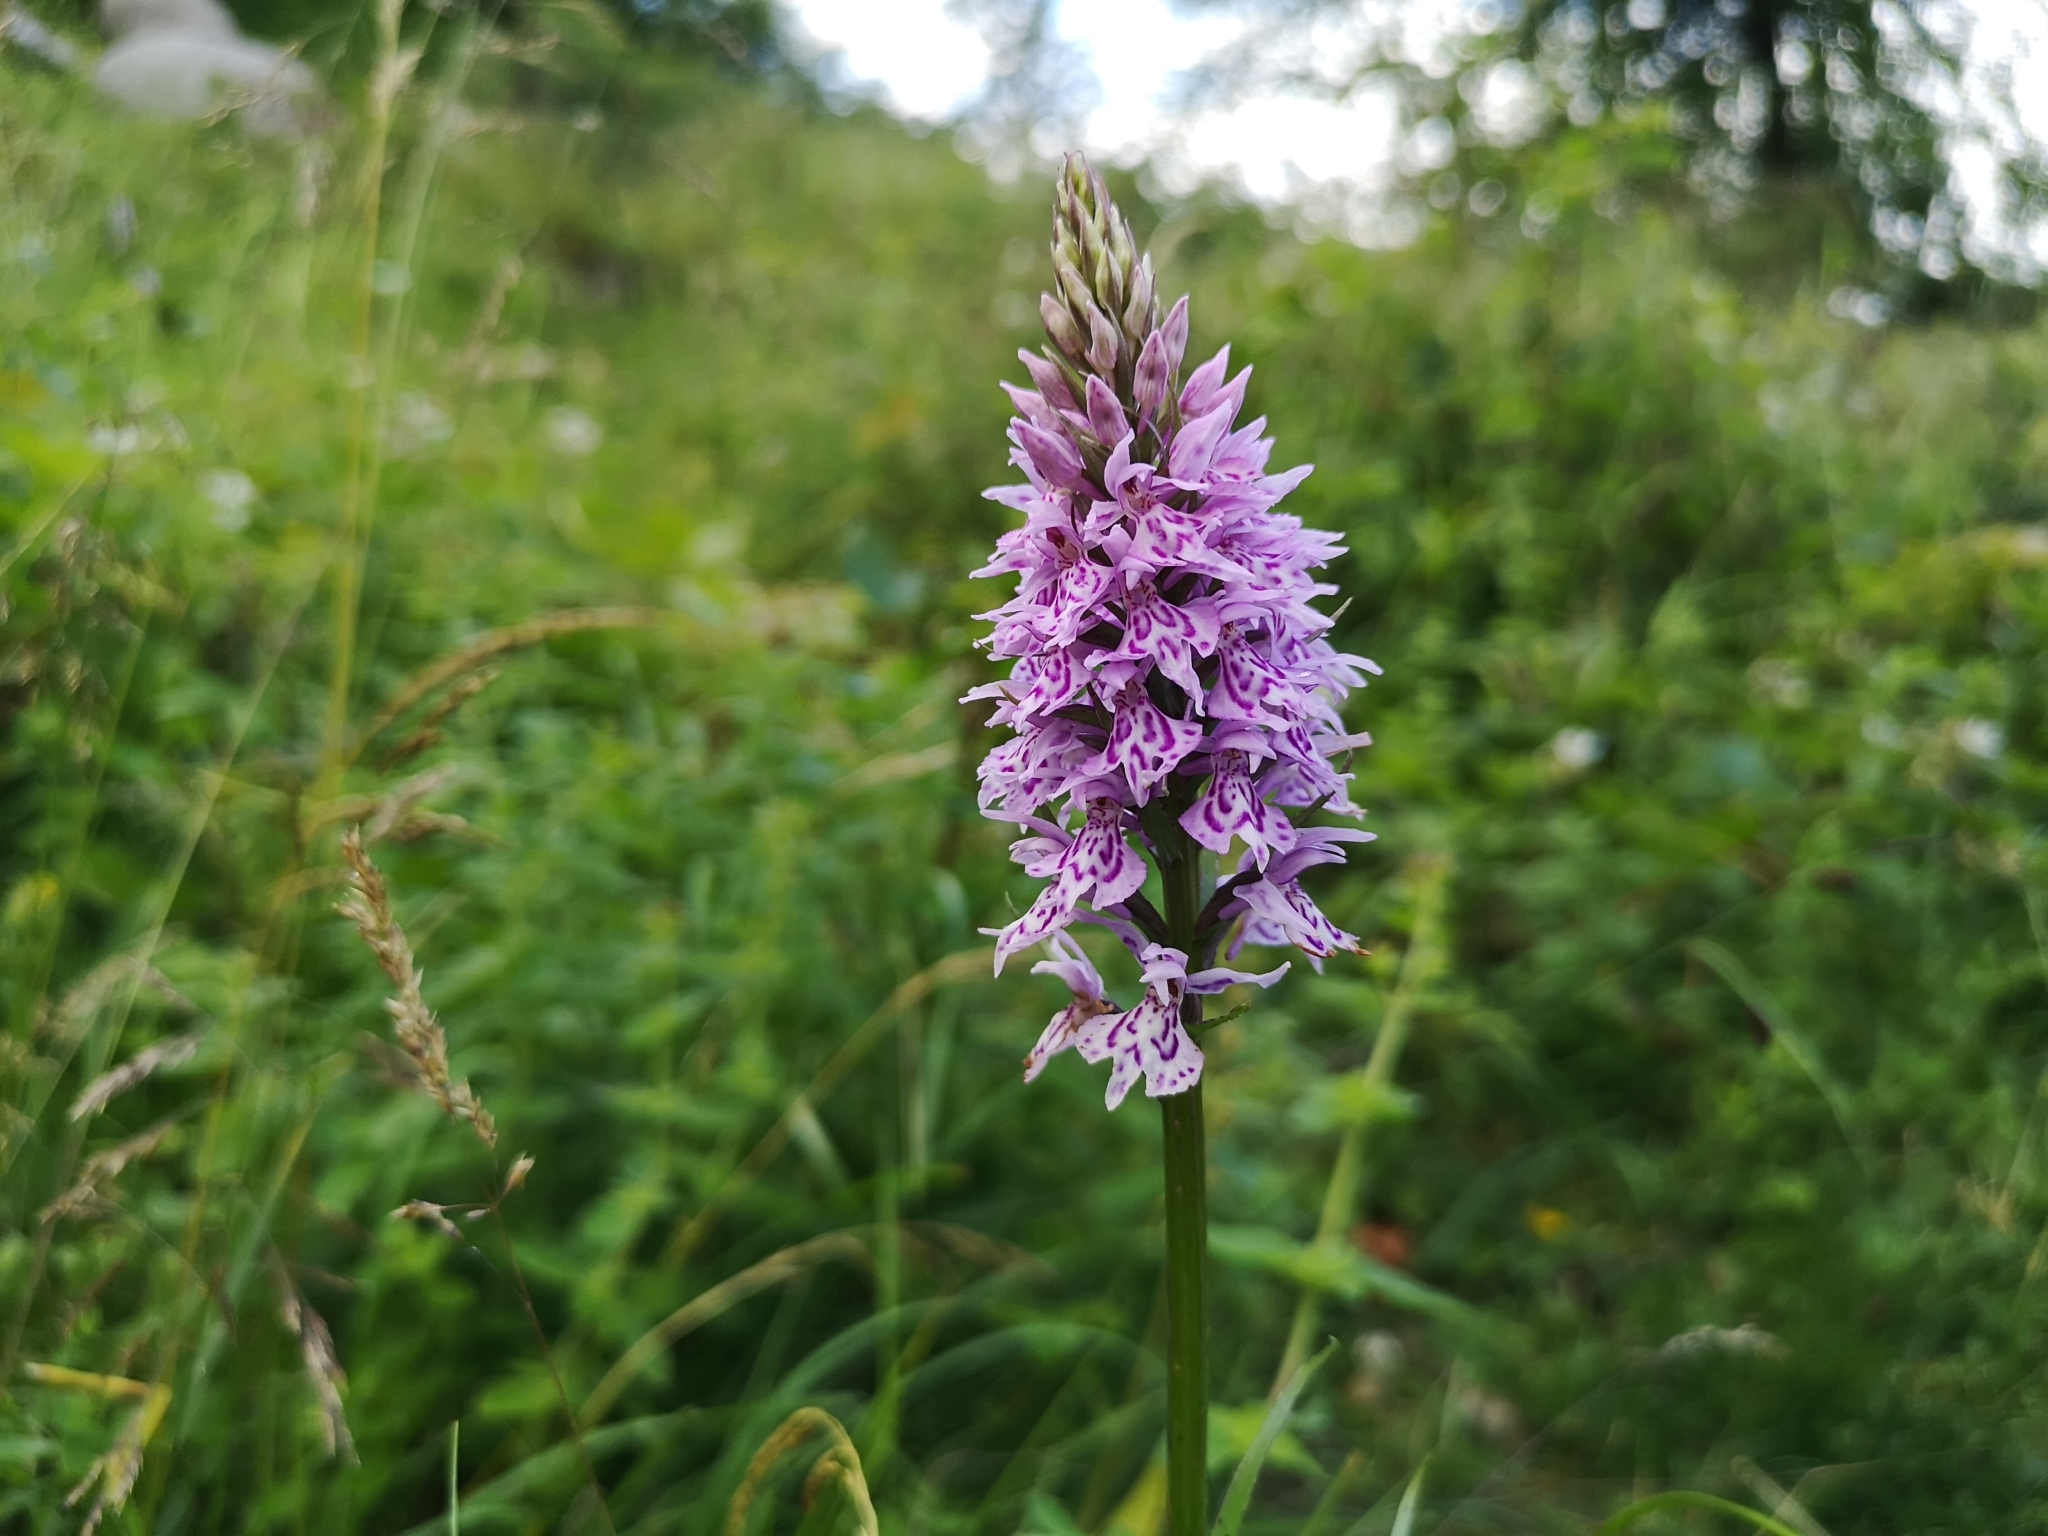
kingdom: Plantae
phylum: Tracheophyta
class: Liliopsida
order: Asparagales
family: Orchidaceae
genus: Dactylorhiza
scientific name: Dactylorhiza maculata
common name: Heath spotted-orchid
